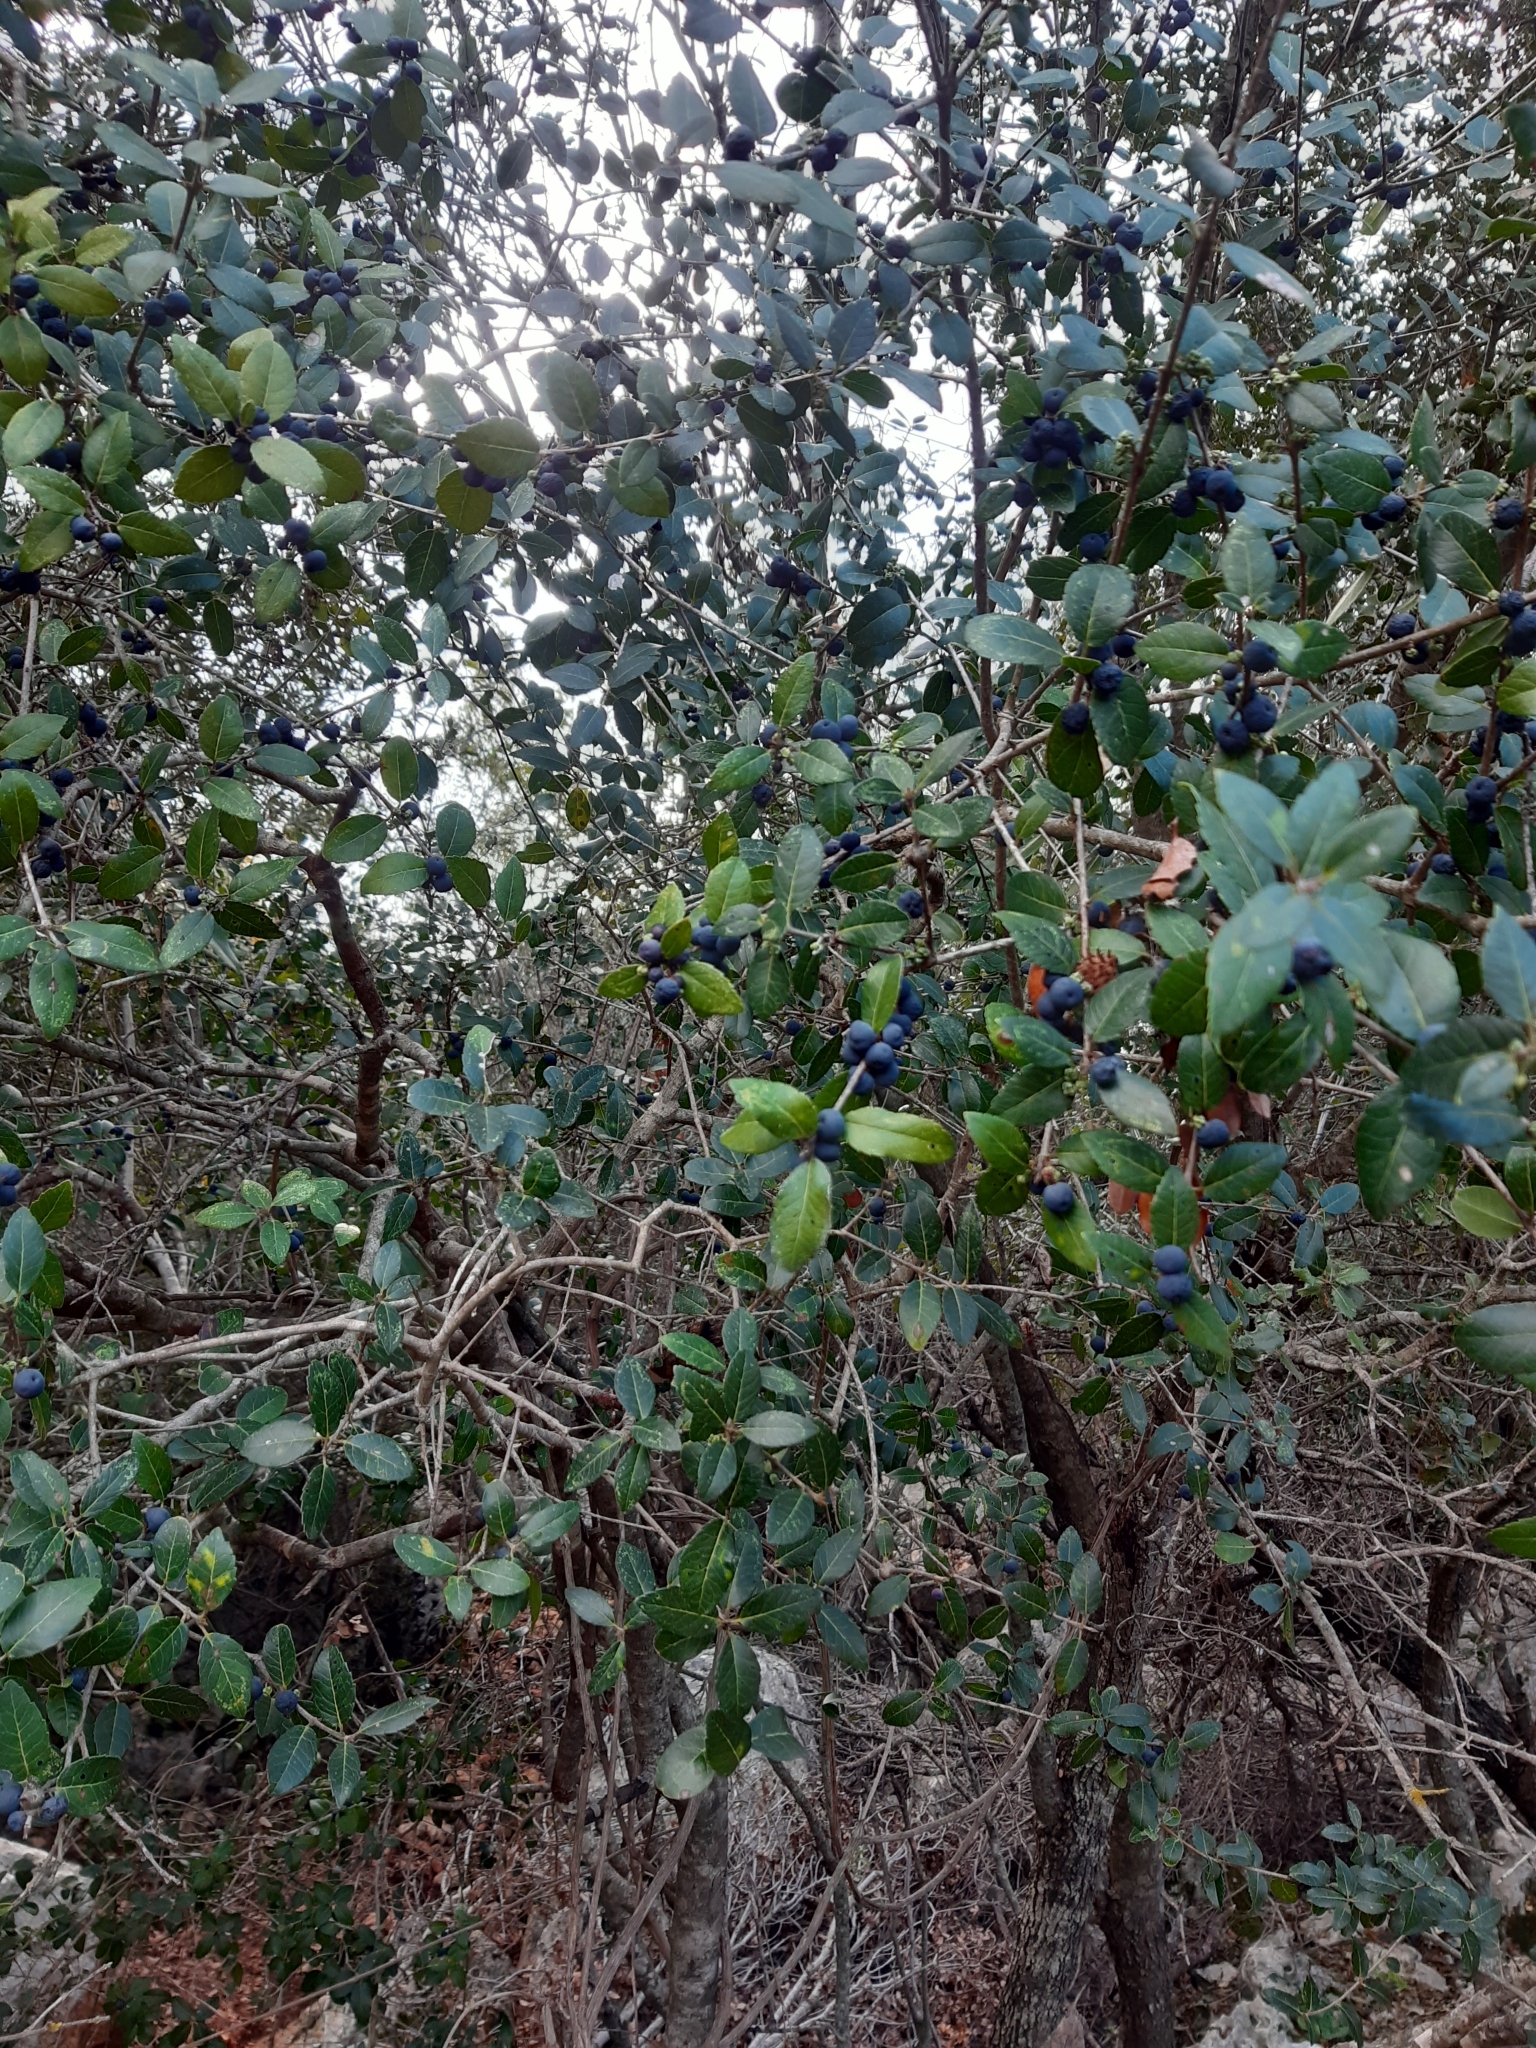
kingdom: Plantae
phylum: Tracheophyta
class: Magnoliopsida
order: Lamiales
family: Oleaceae
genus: Phillyrea
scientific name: Phillyrea latifolia
